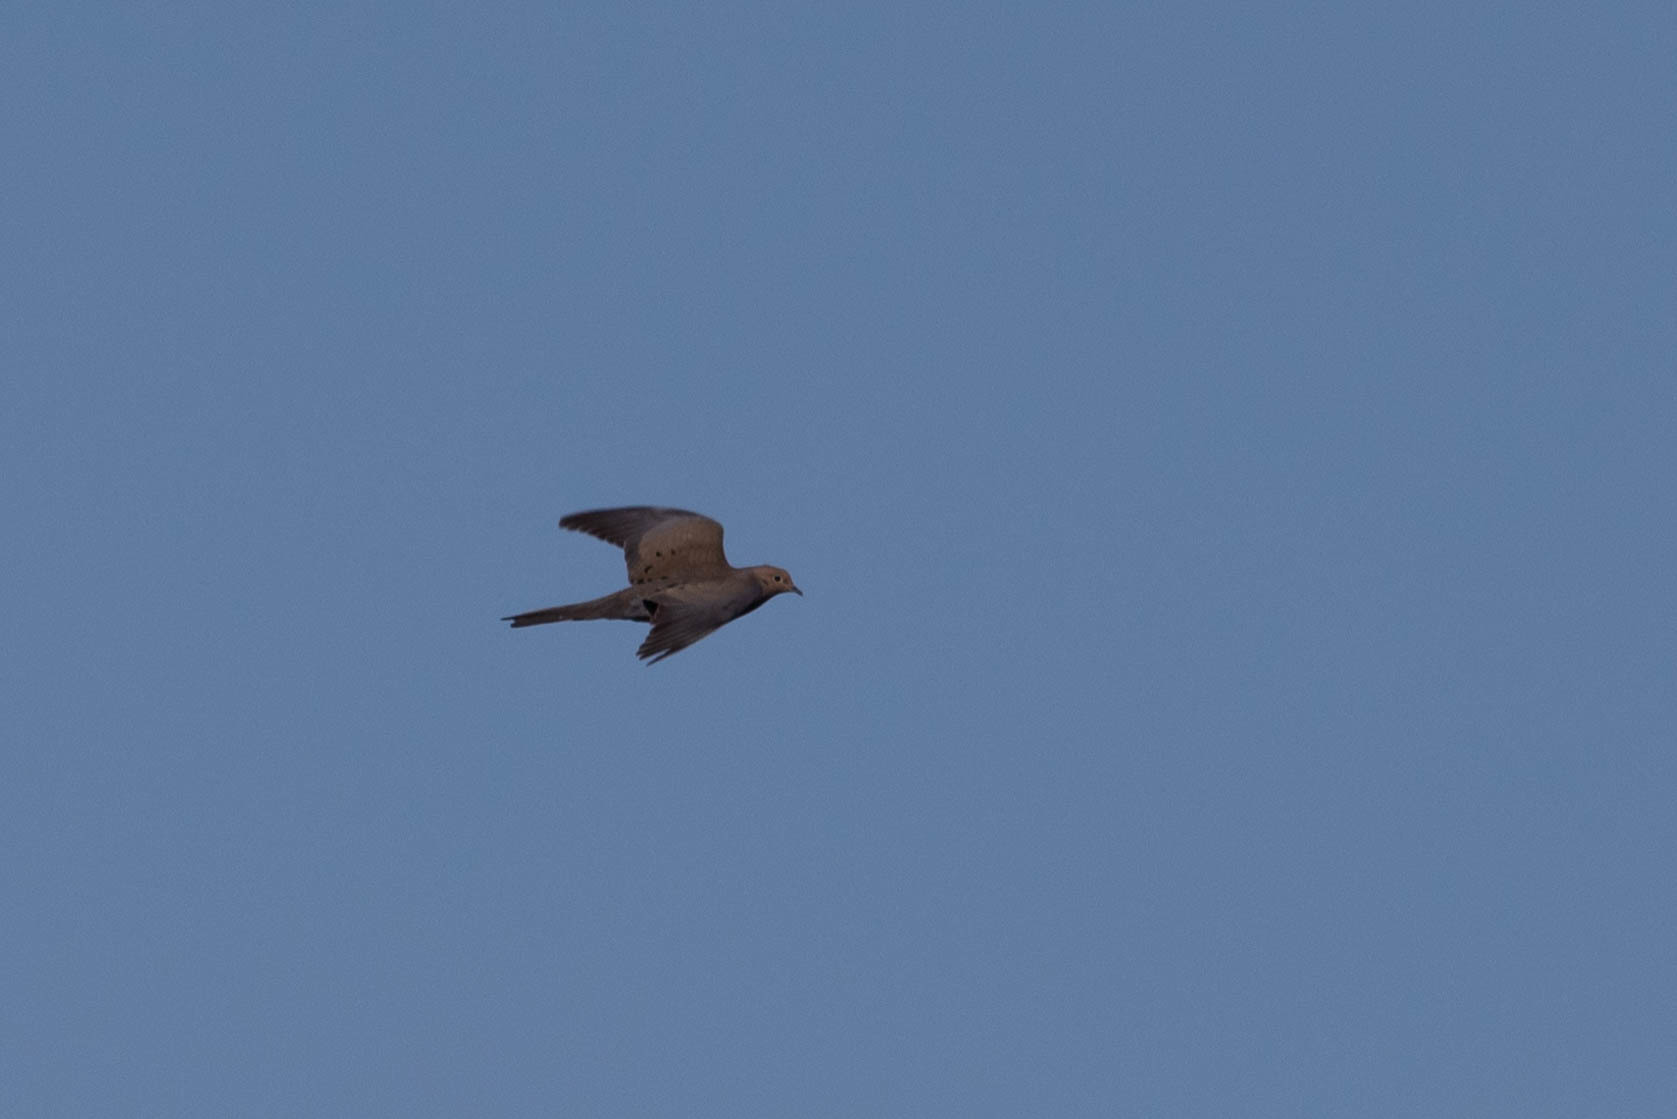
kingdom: Animalia
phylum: Chordata
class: Aves
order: Columbiformes
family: Columbidae
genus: Zenaida
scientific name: Zenaida macroura
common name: Mourning dove
